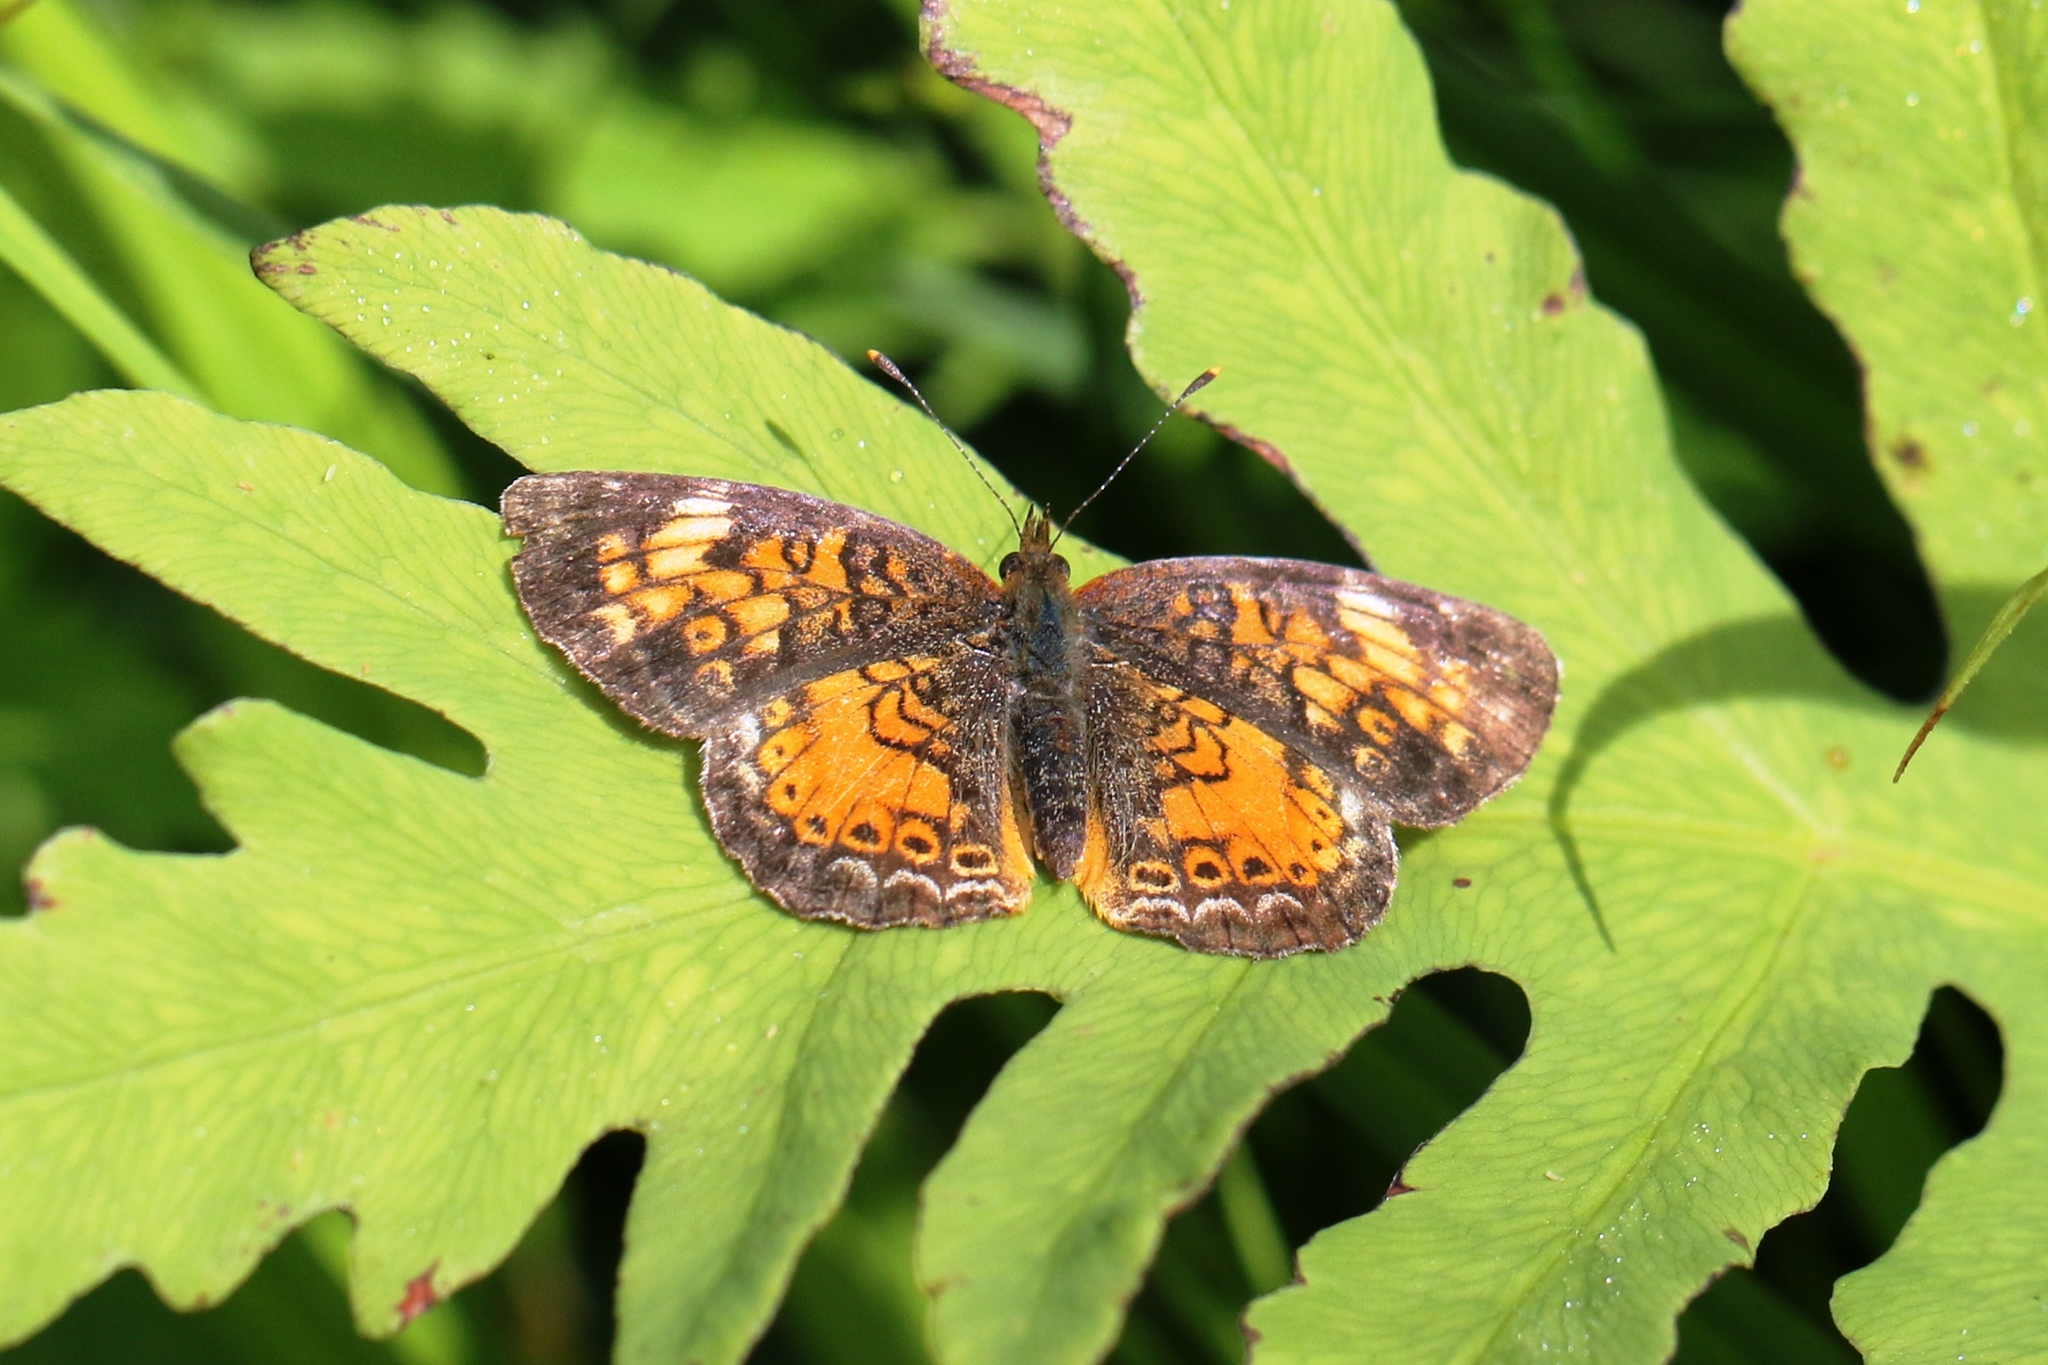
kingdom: Animalia
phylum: Arthropoda
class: Insecta
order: Lepidoptera
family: Nymphalidae
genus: Phyciodes
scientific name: Phyciodes tharos
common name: Pearl crescent
